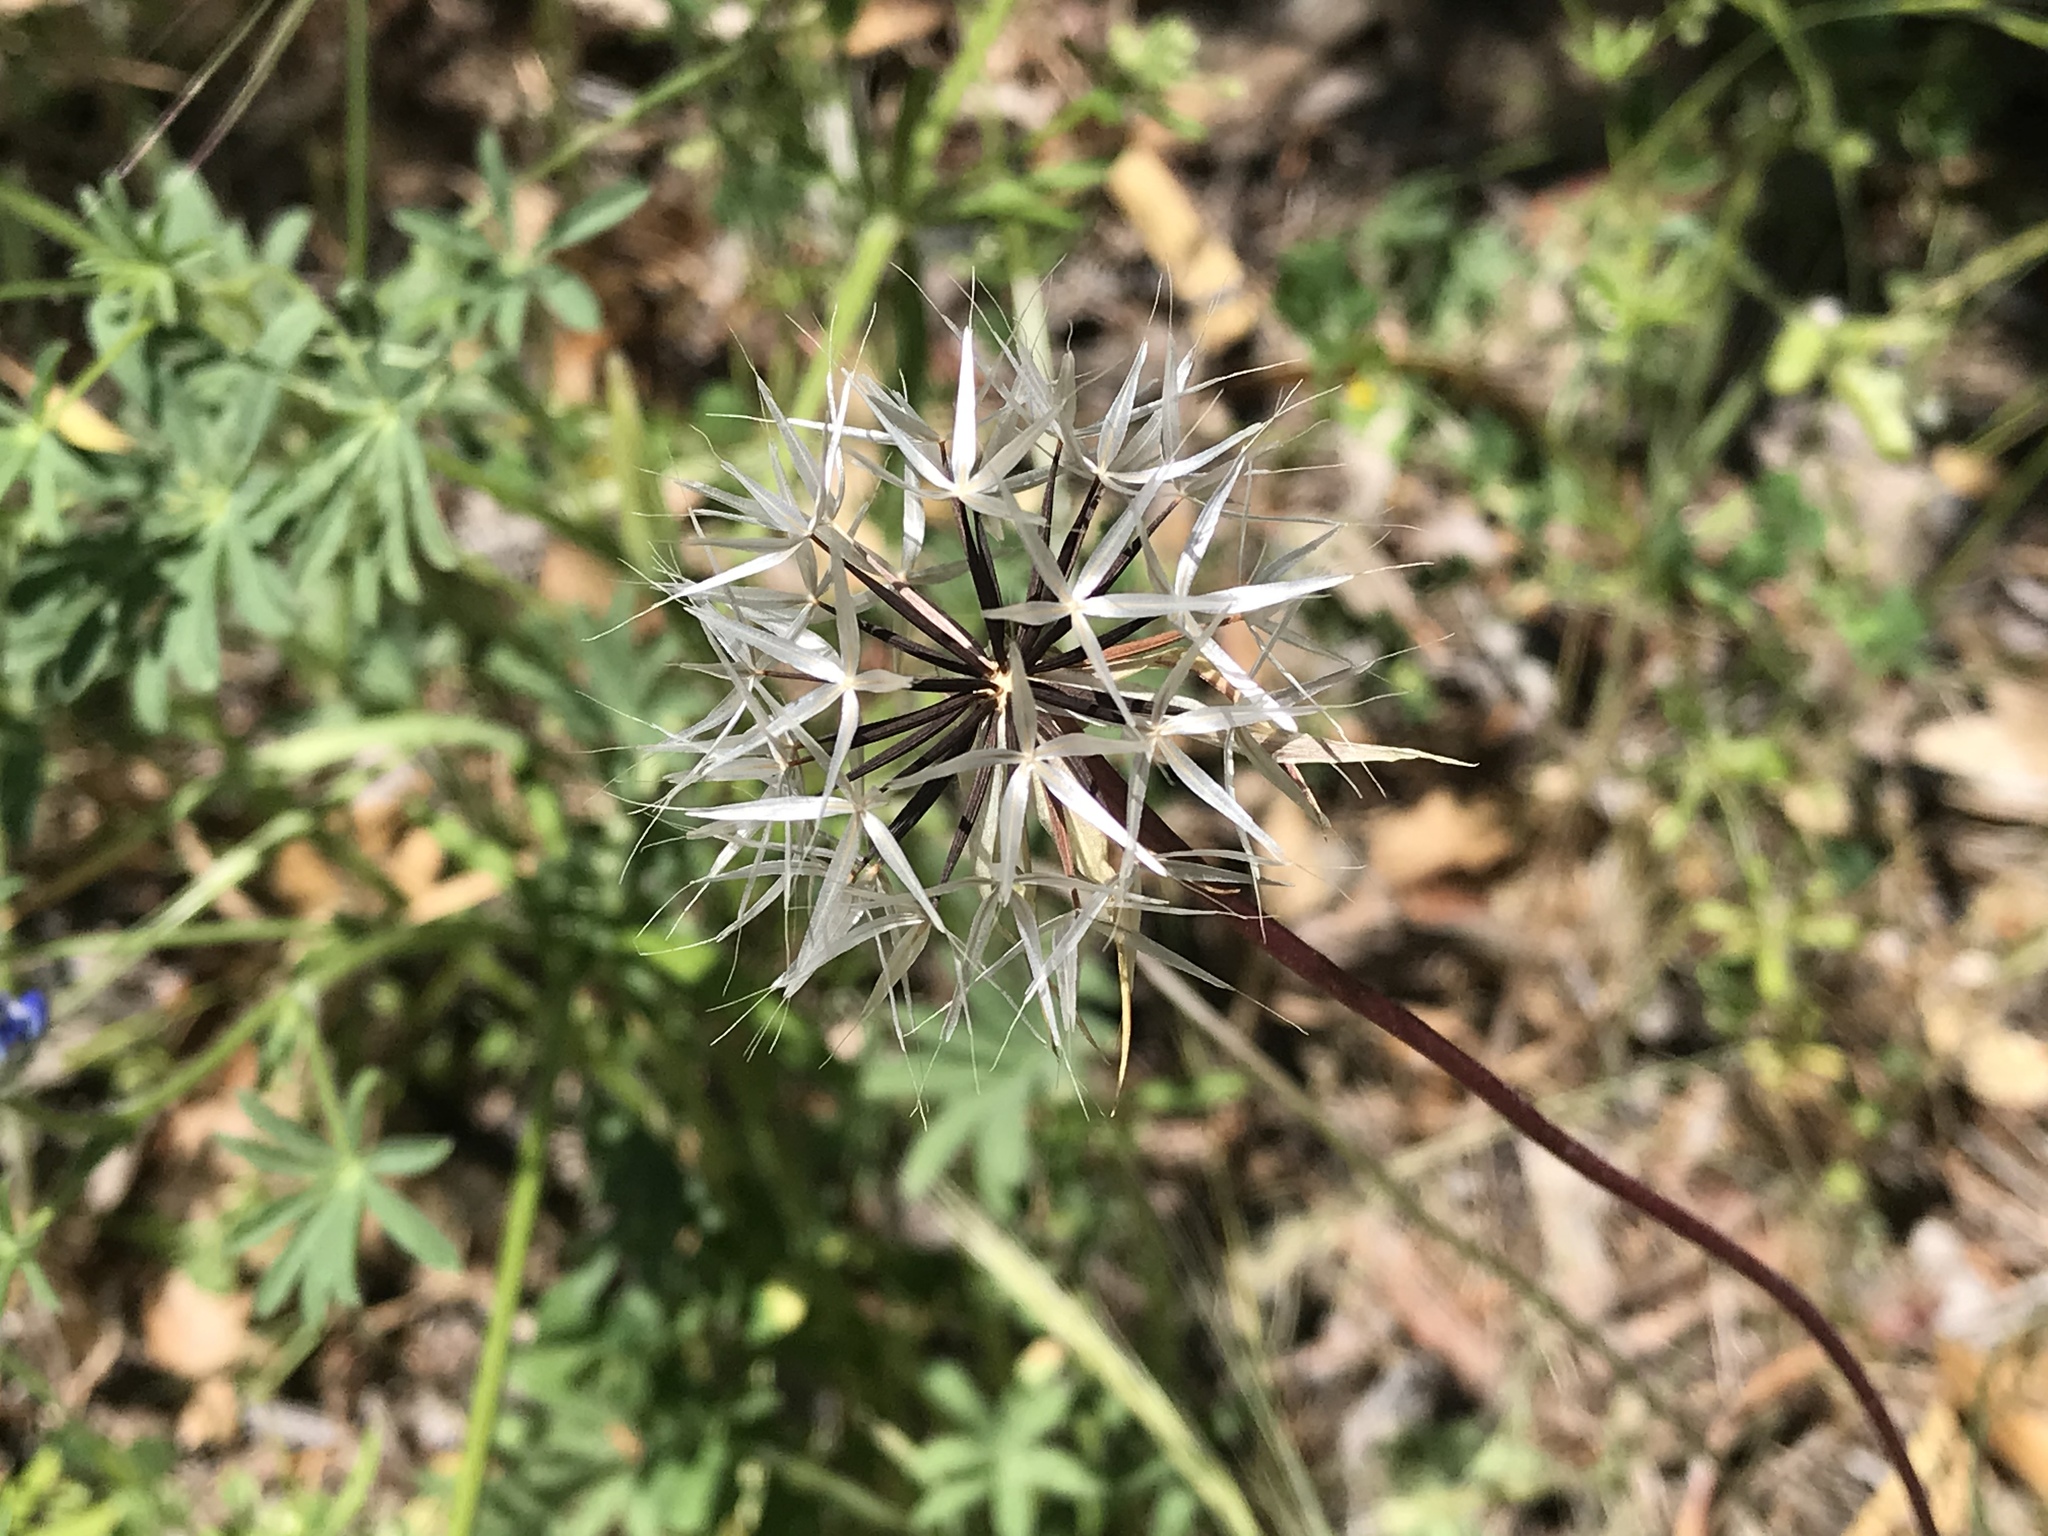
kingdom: Plantae
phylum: Tracheophyta
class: Magnoliopsida
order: Asterales
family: Asteraceae
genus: Microseris
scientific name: Microseris lindleyi
